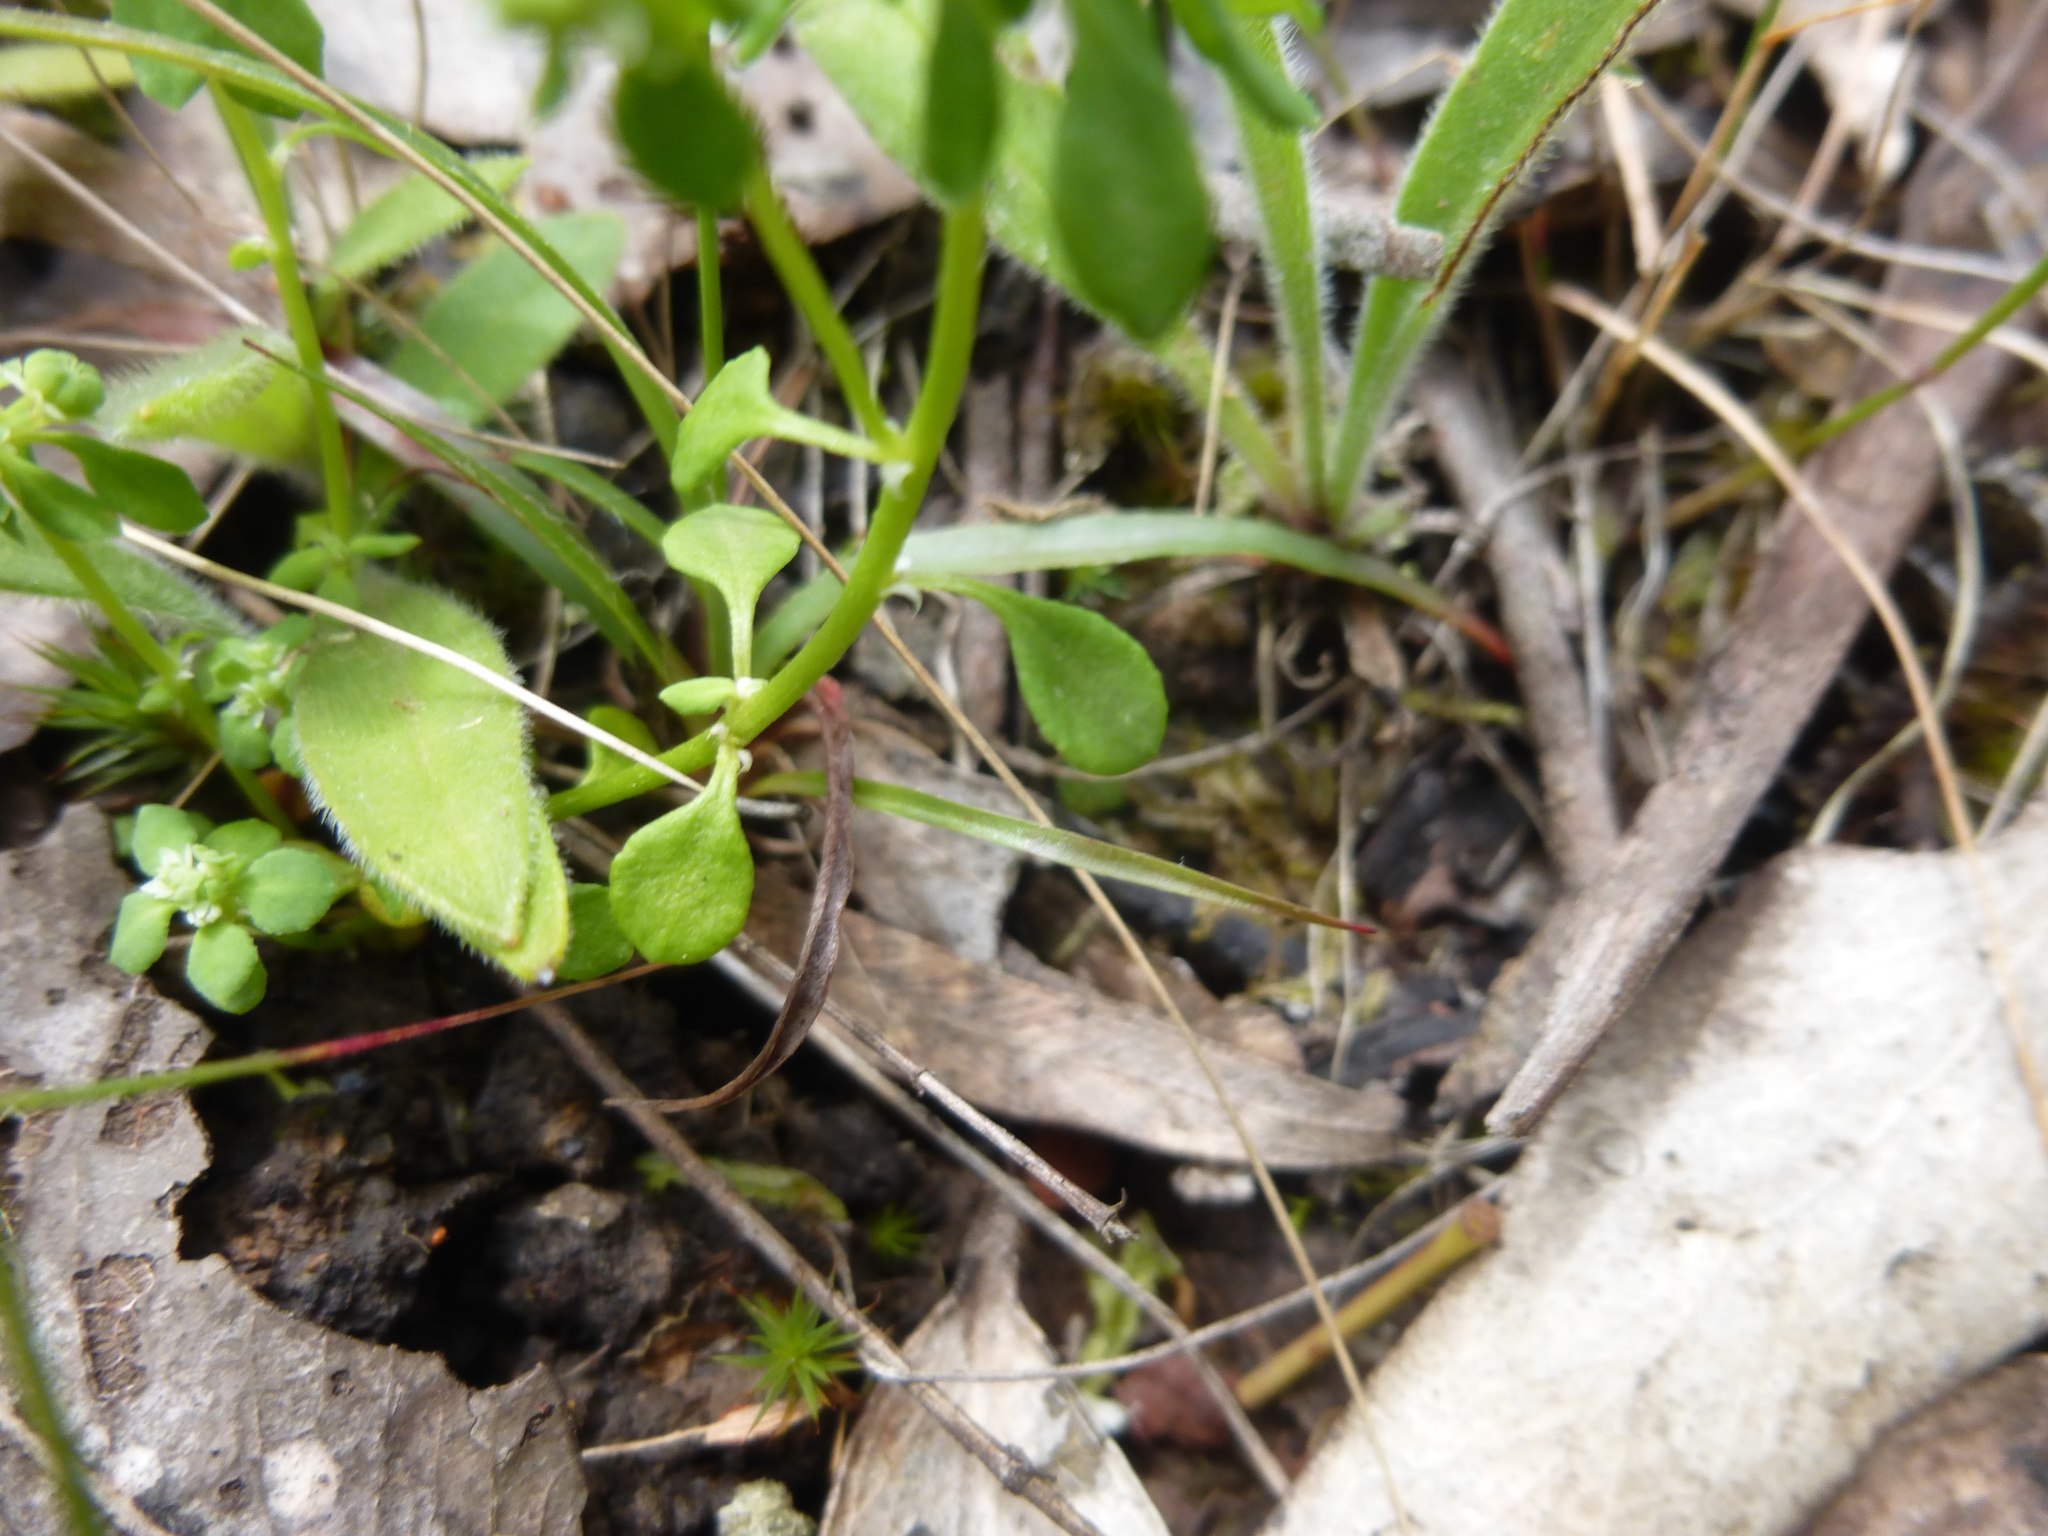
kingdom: Plantae
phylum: Tracheophyta
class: Magnoliopsida
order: Malpighiales
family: Phyllanthaceae
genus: Poranthera
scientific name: Poranthera microphylla
